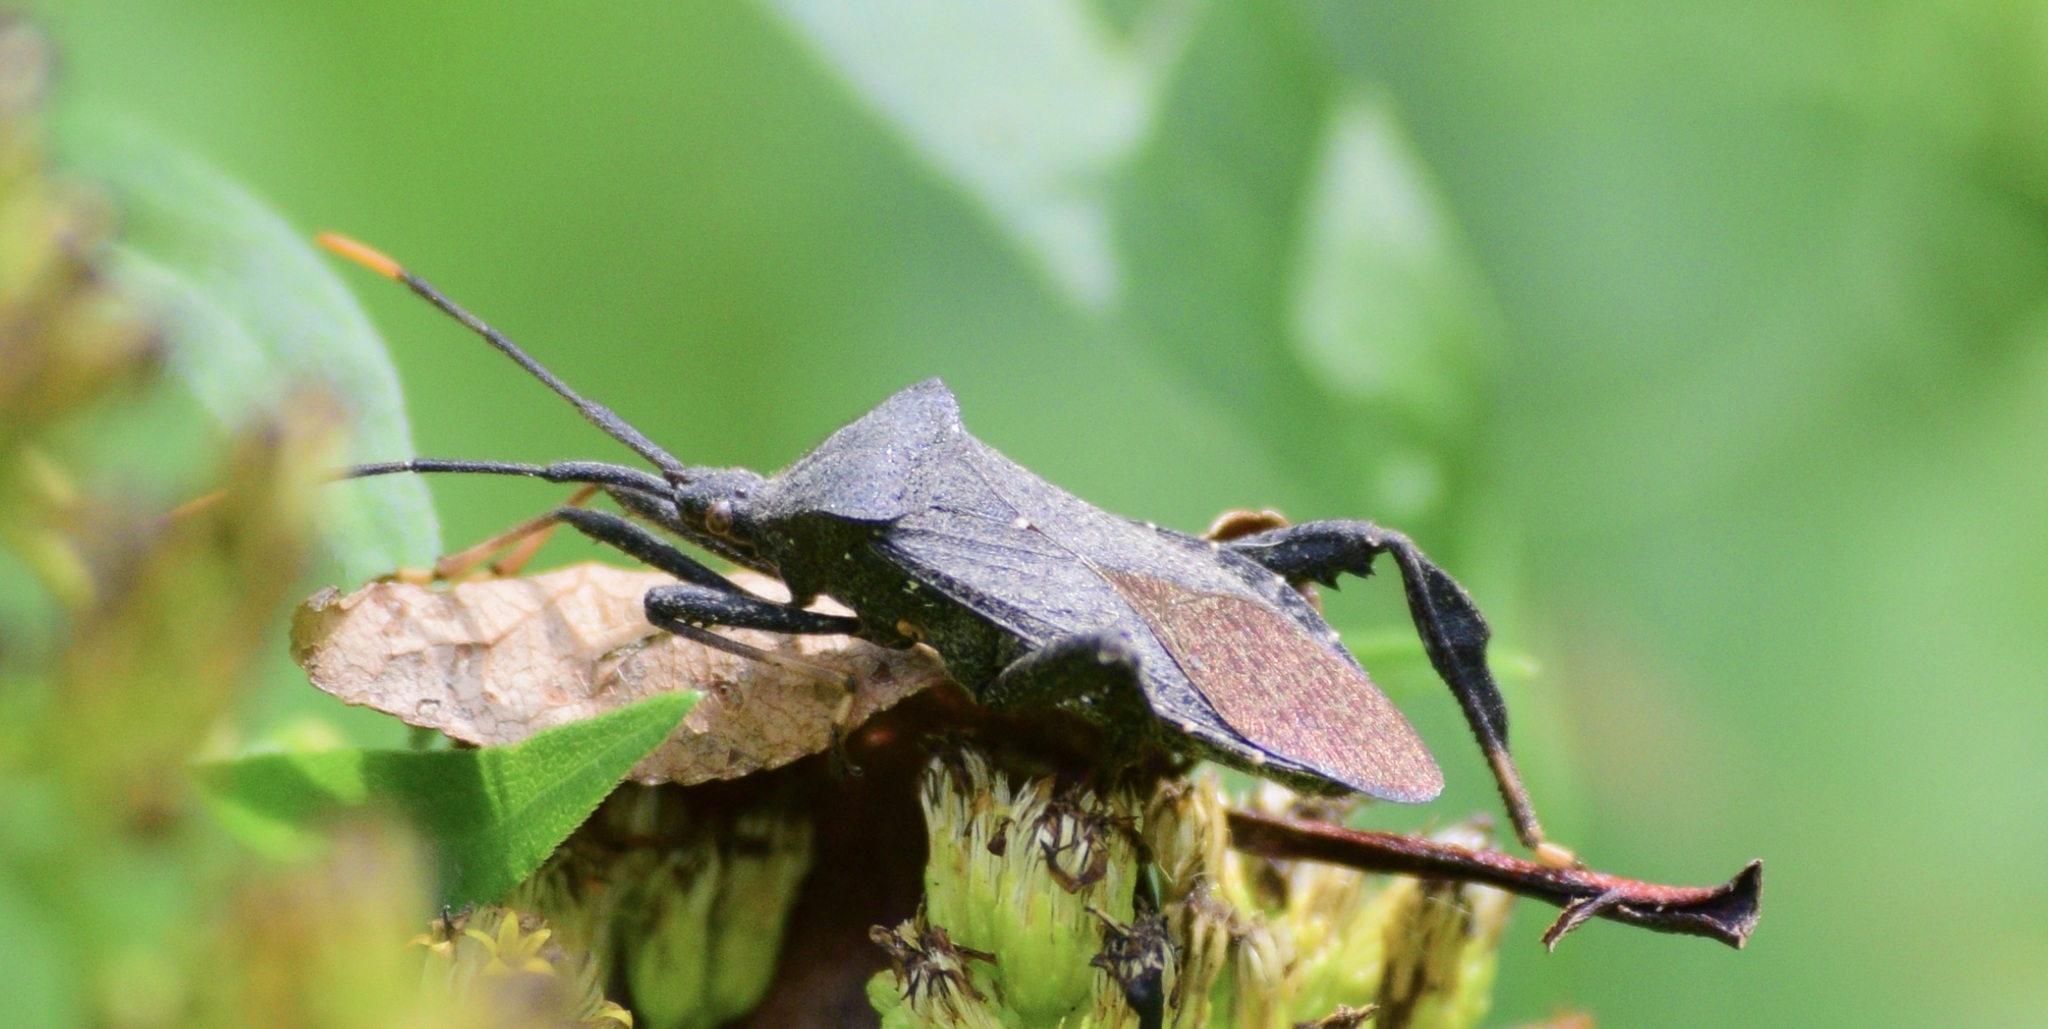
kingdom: Animalia
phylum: Arthropoda
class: Insecta
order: Hemiptera
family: Coreidae
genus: Acanthocephala
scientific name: Acanthocephala terminalis
